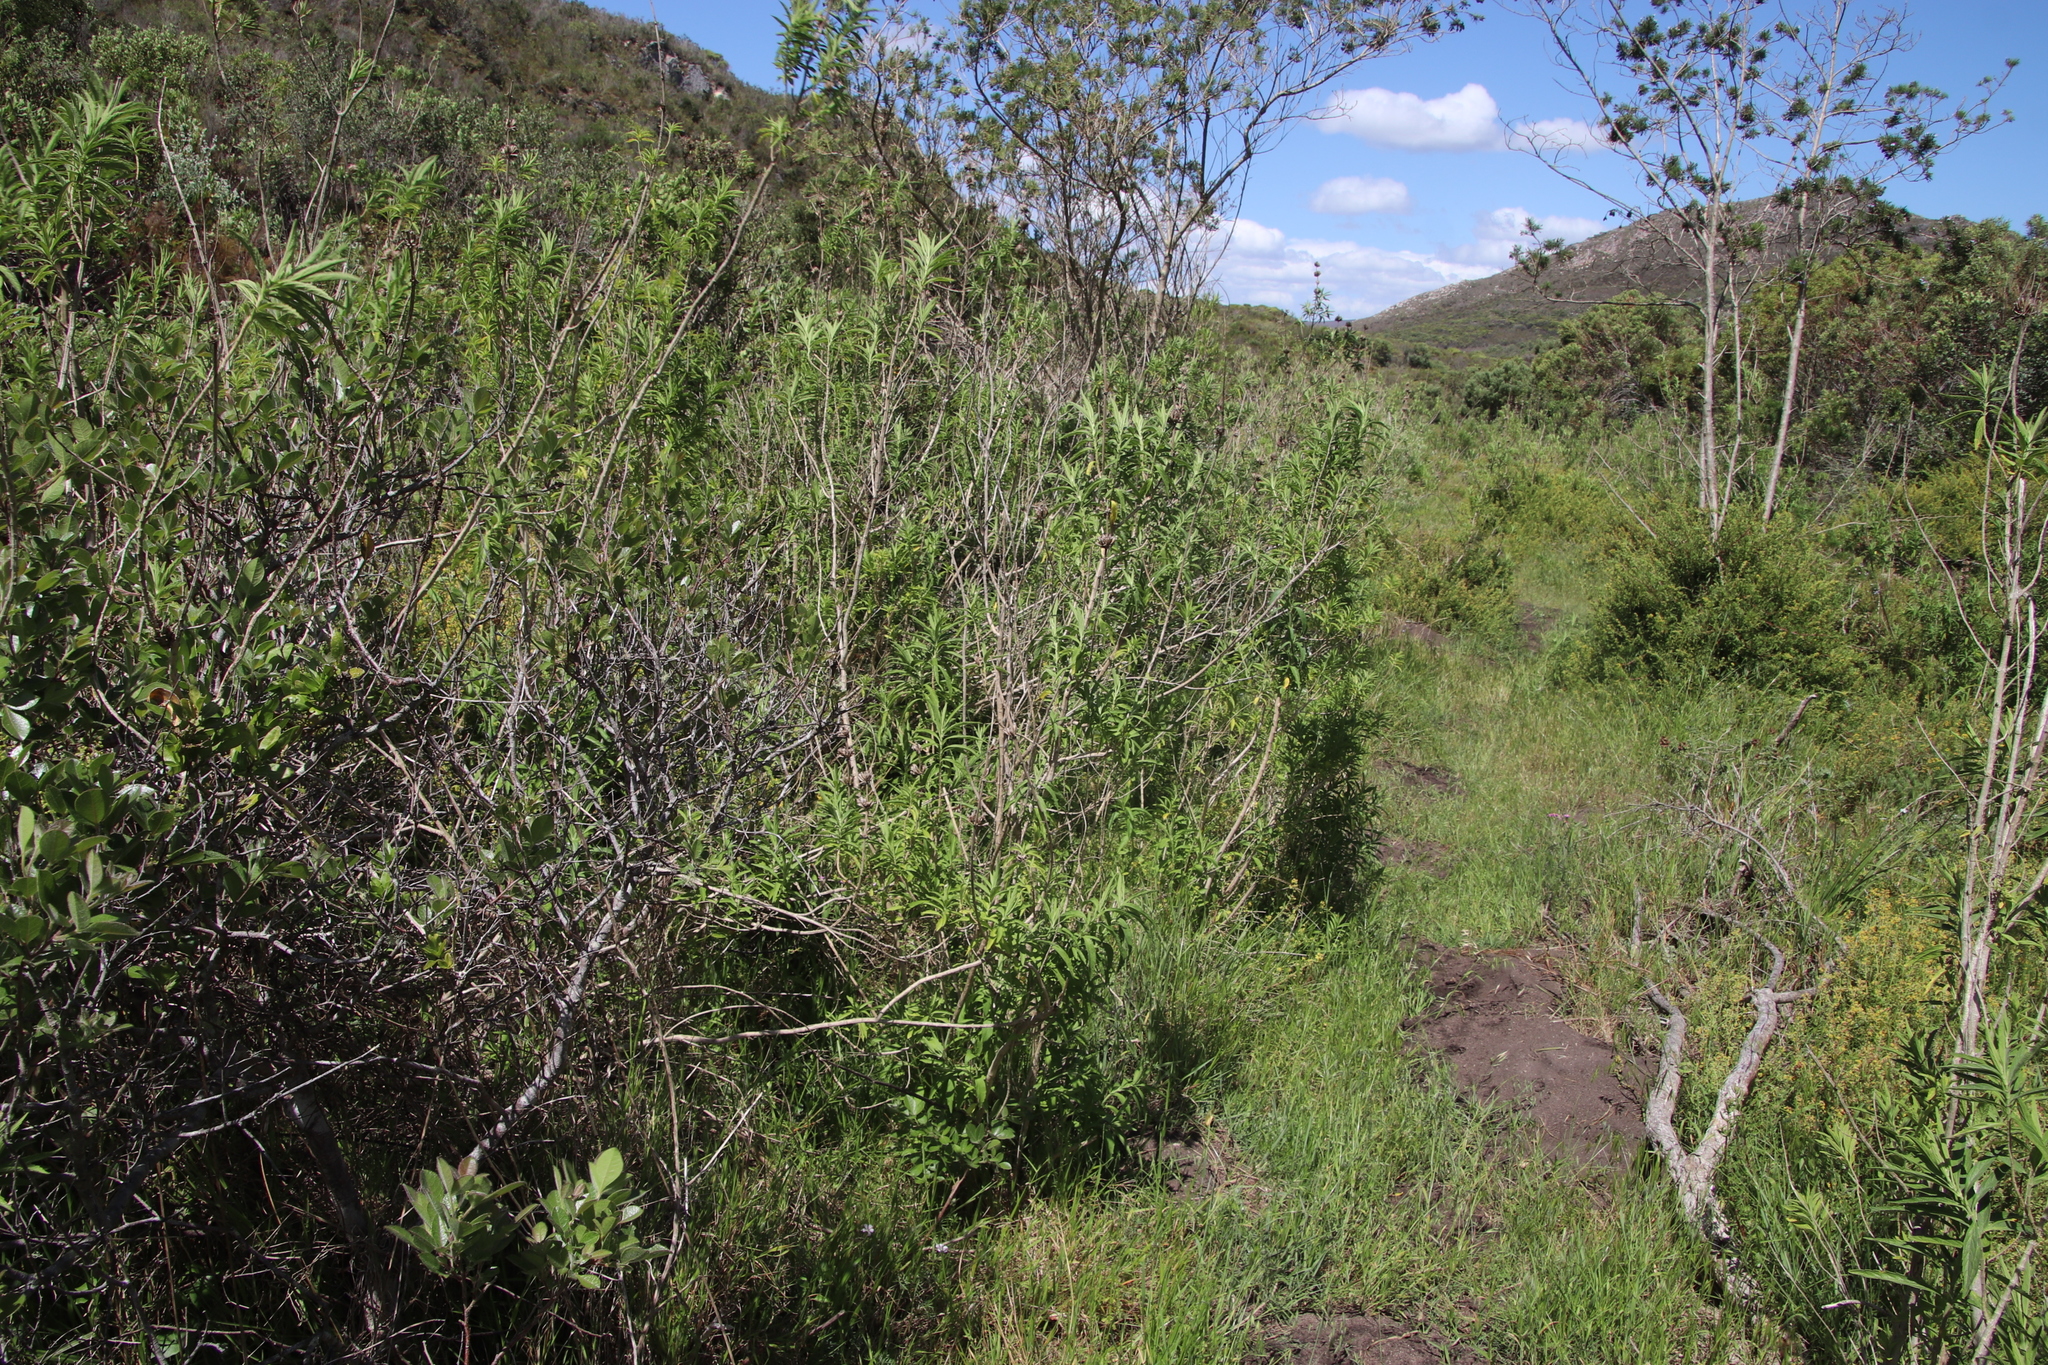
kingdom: Plantae
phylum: Tracheophyta
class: Magnoliopsida
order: Lamiales
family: Lamiaceae
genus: Leonotis
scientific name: Leonotis leonurus
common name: Lion's ear
